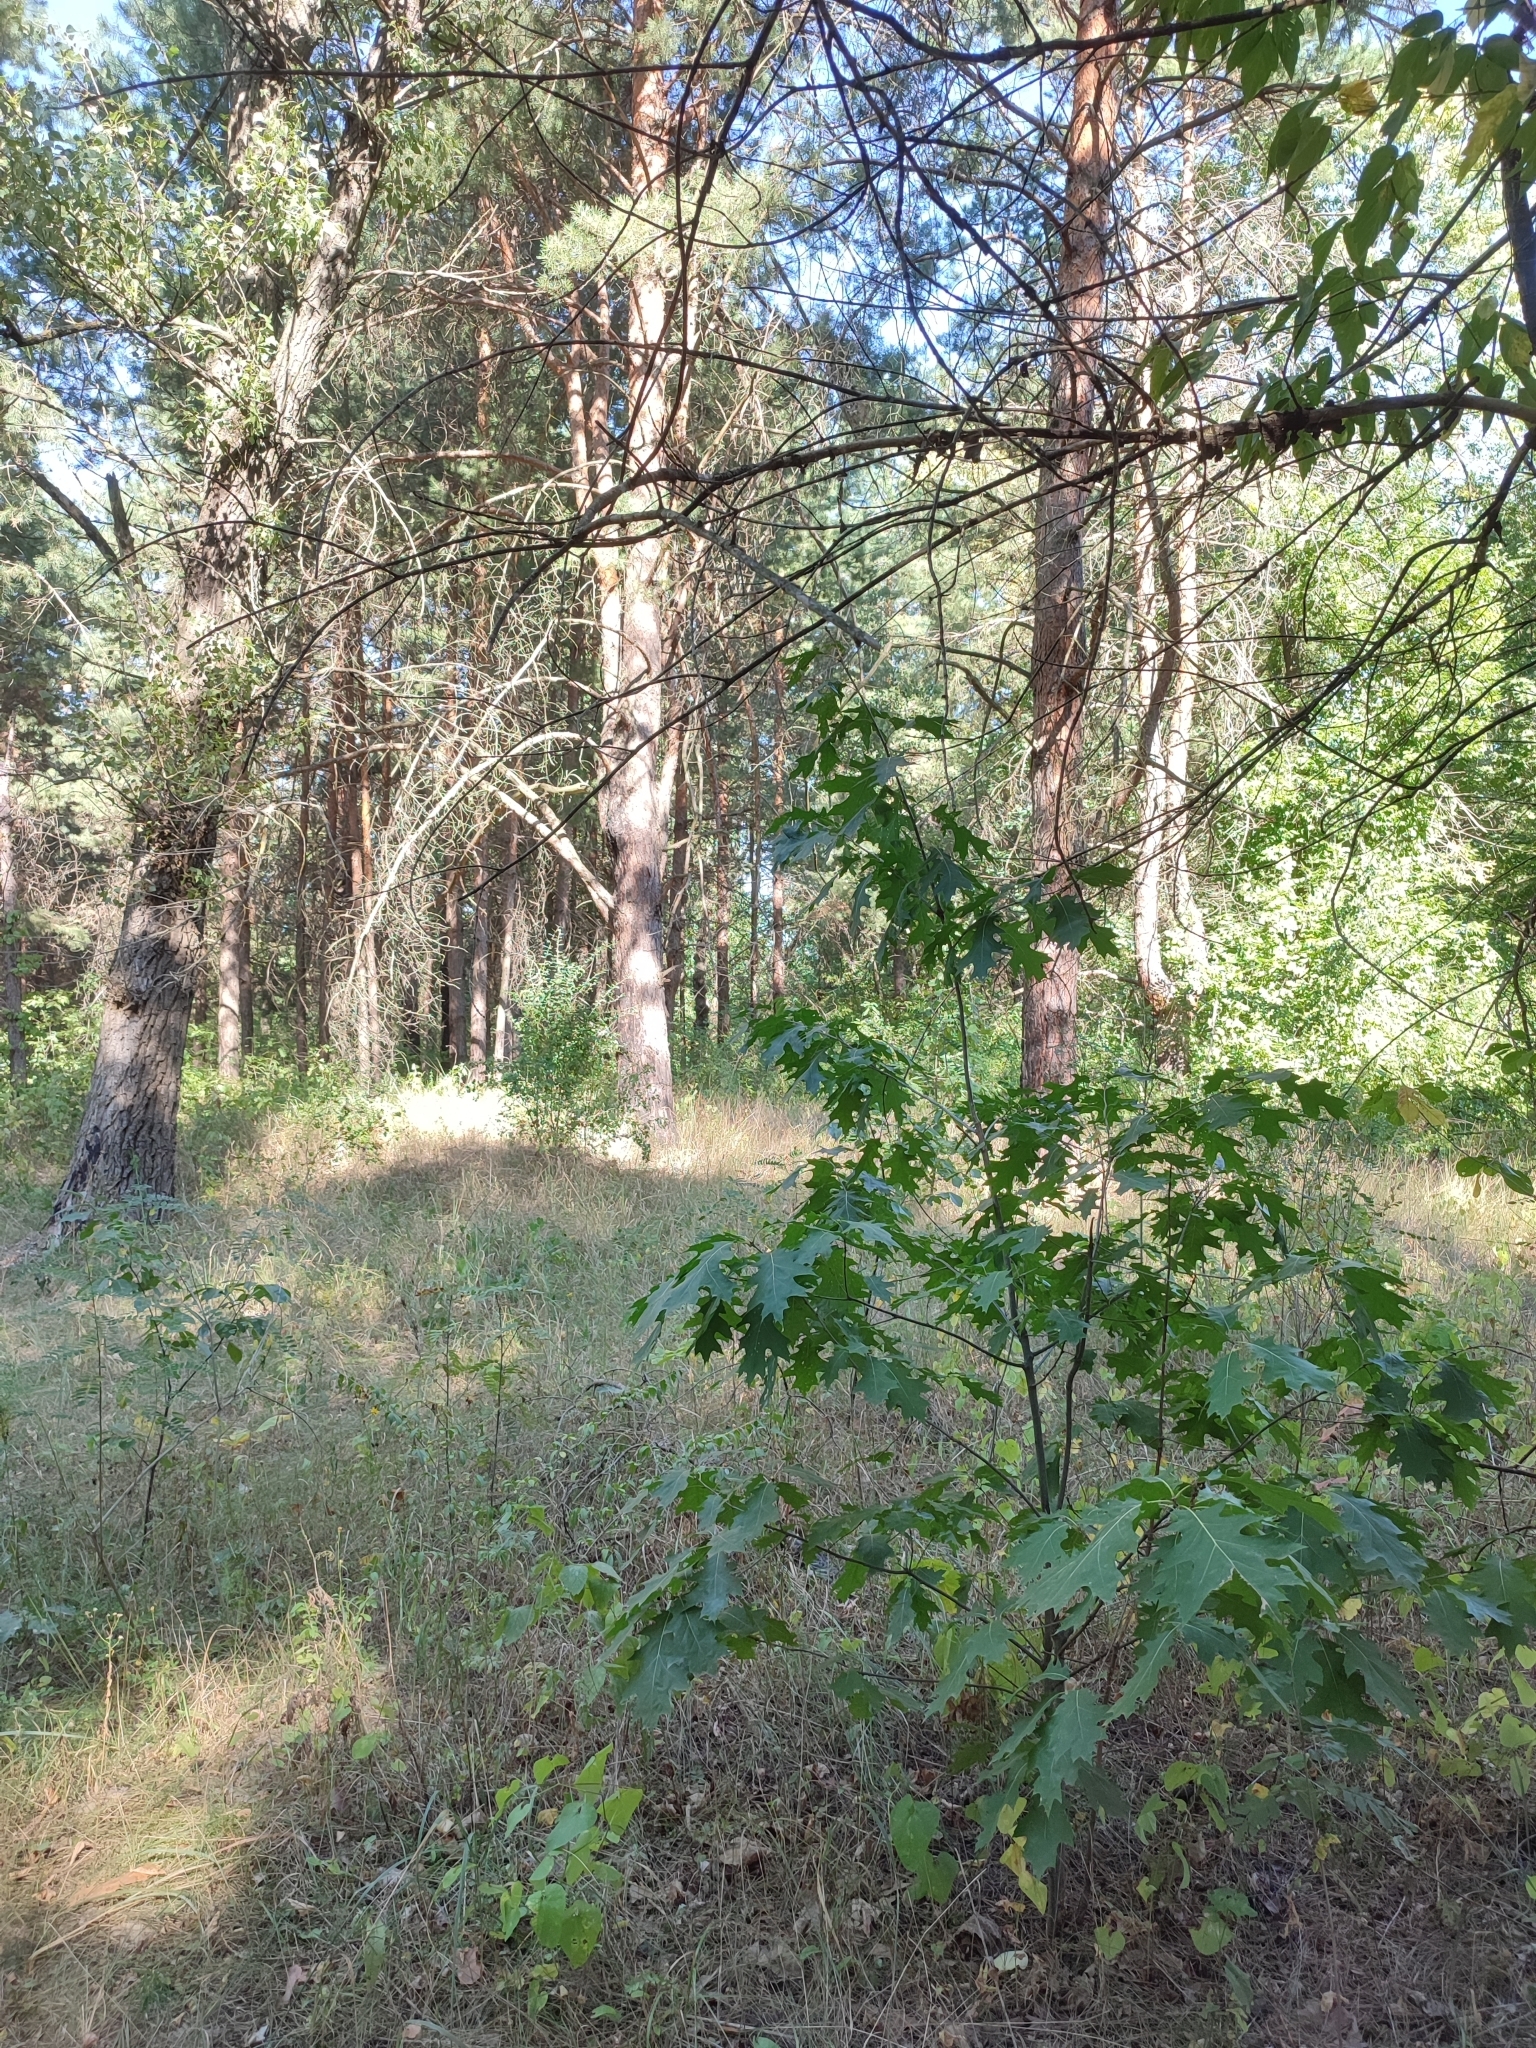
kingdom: Plantae
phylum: Tracheophyta
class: Magnoliopsida
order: Fagales
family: Fagaceae
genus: Quercus
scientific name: Quercus rubra
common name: Red oak
